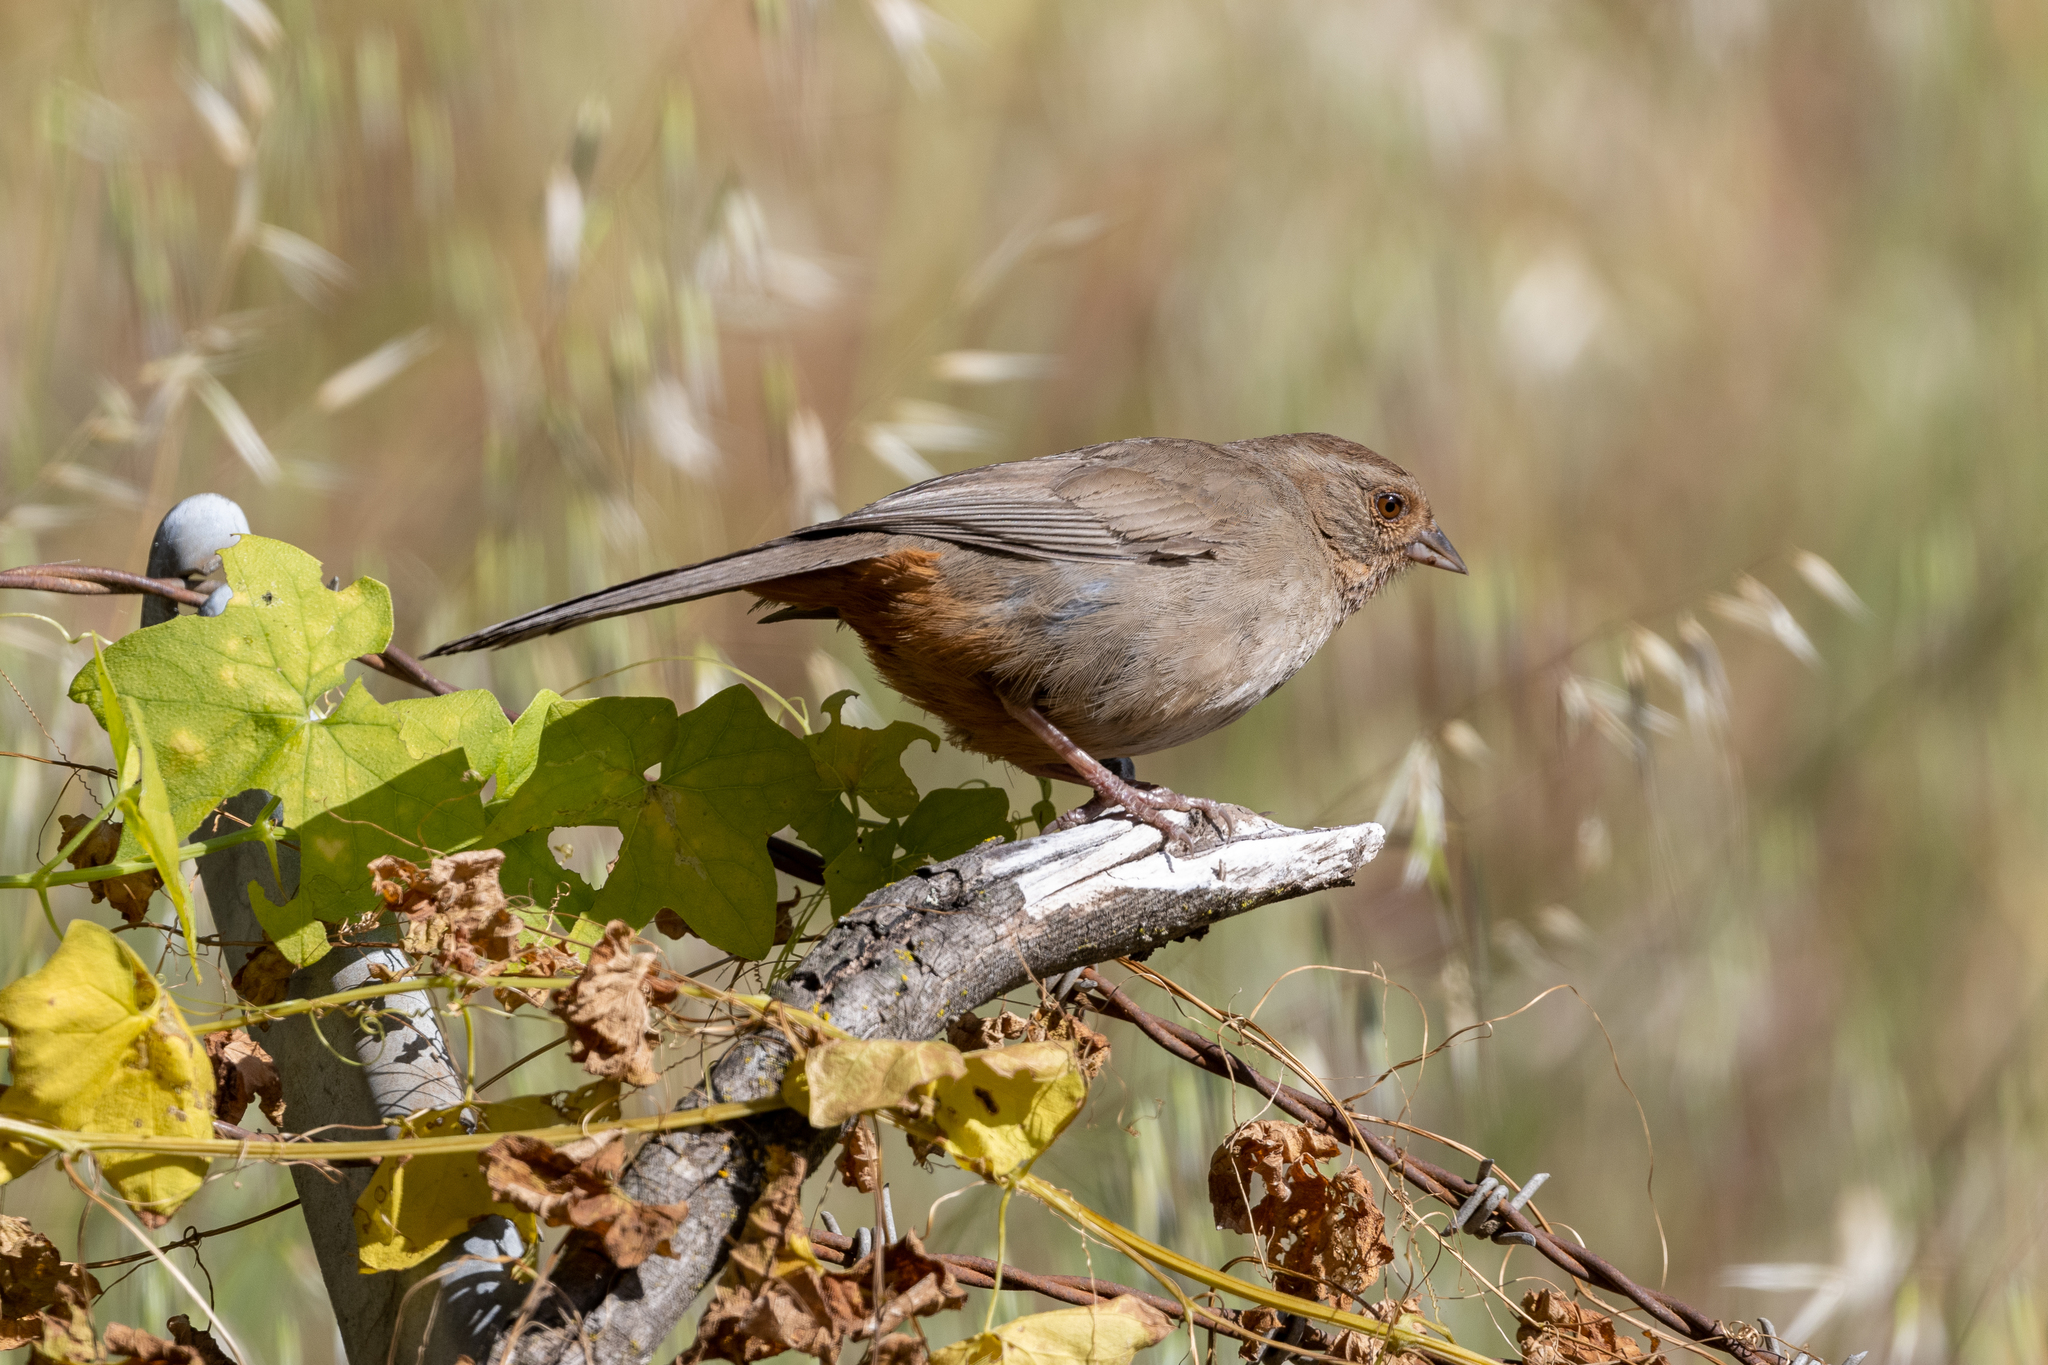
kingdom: Animalia
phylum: Chordata
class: Aves
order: Passeriformes
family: Passerellidae
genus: Melozone
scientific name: Melozone crissalis
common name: California towhee
